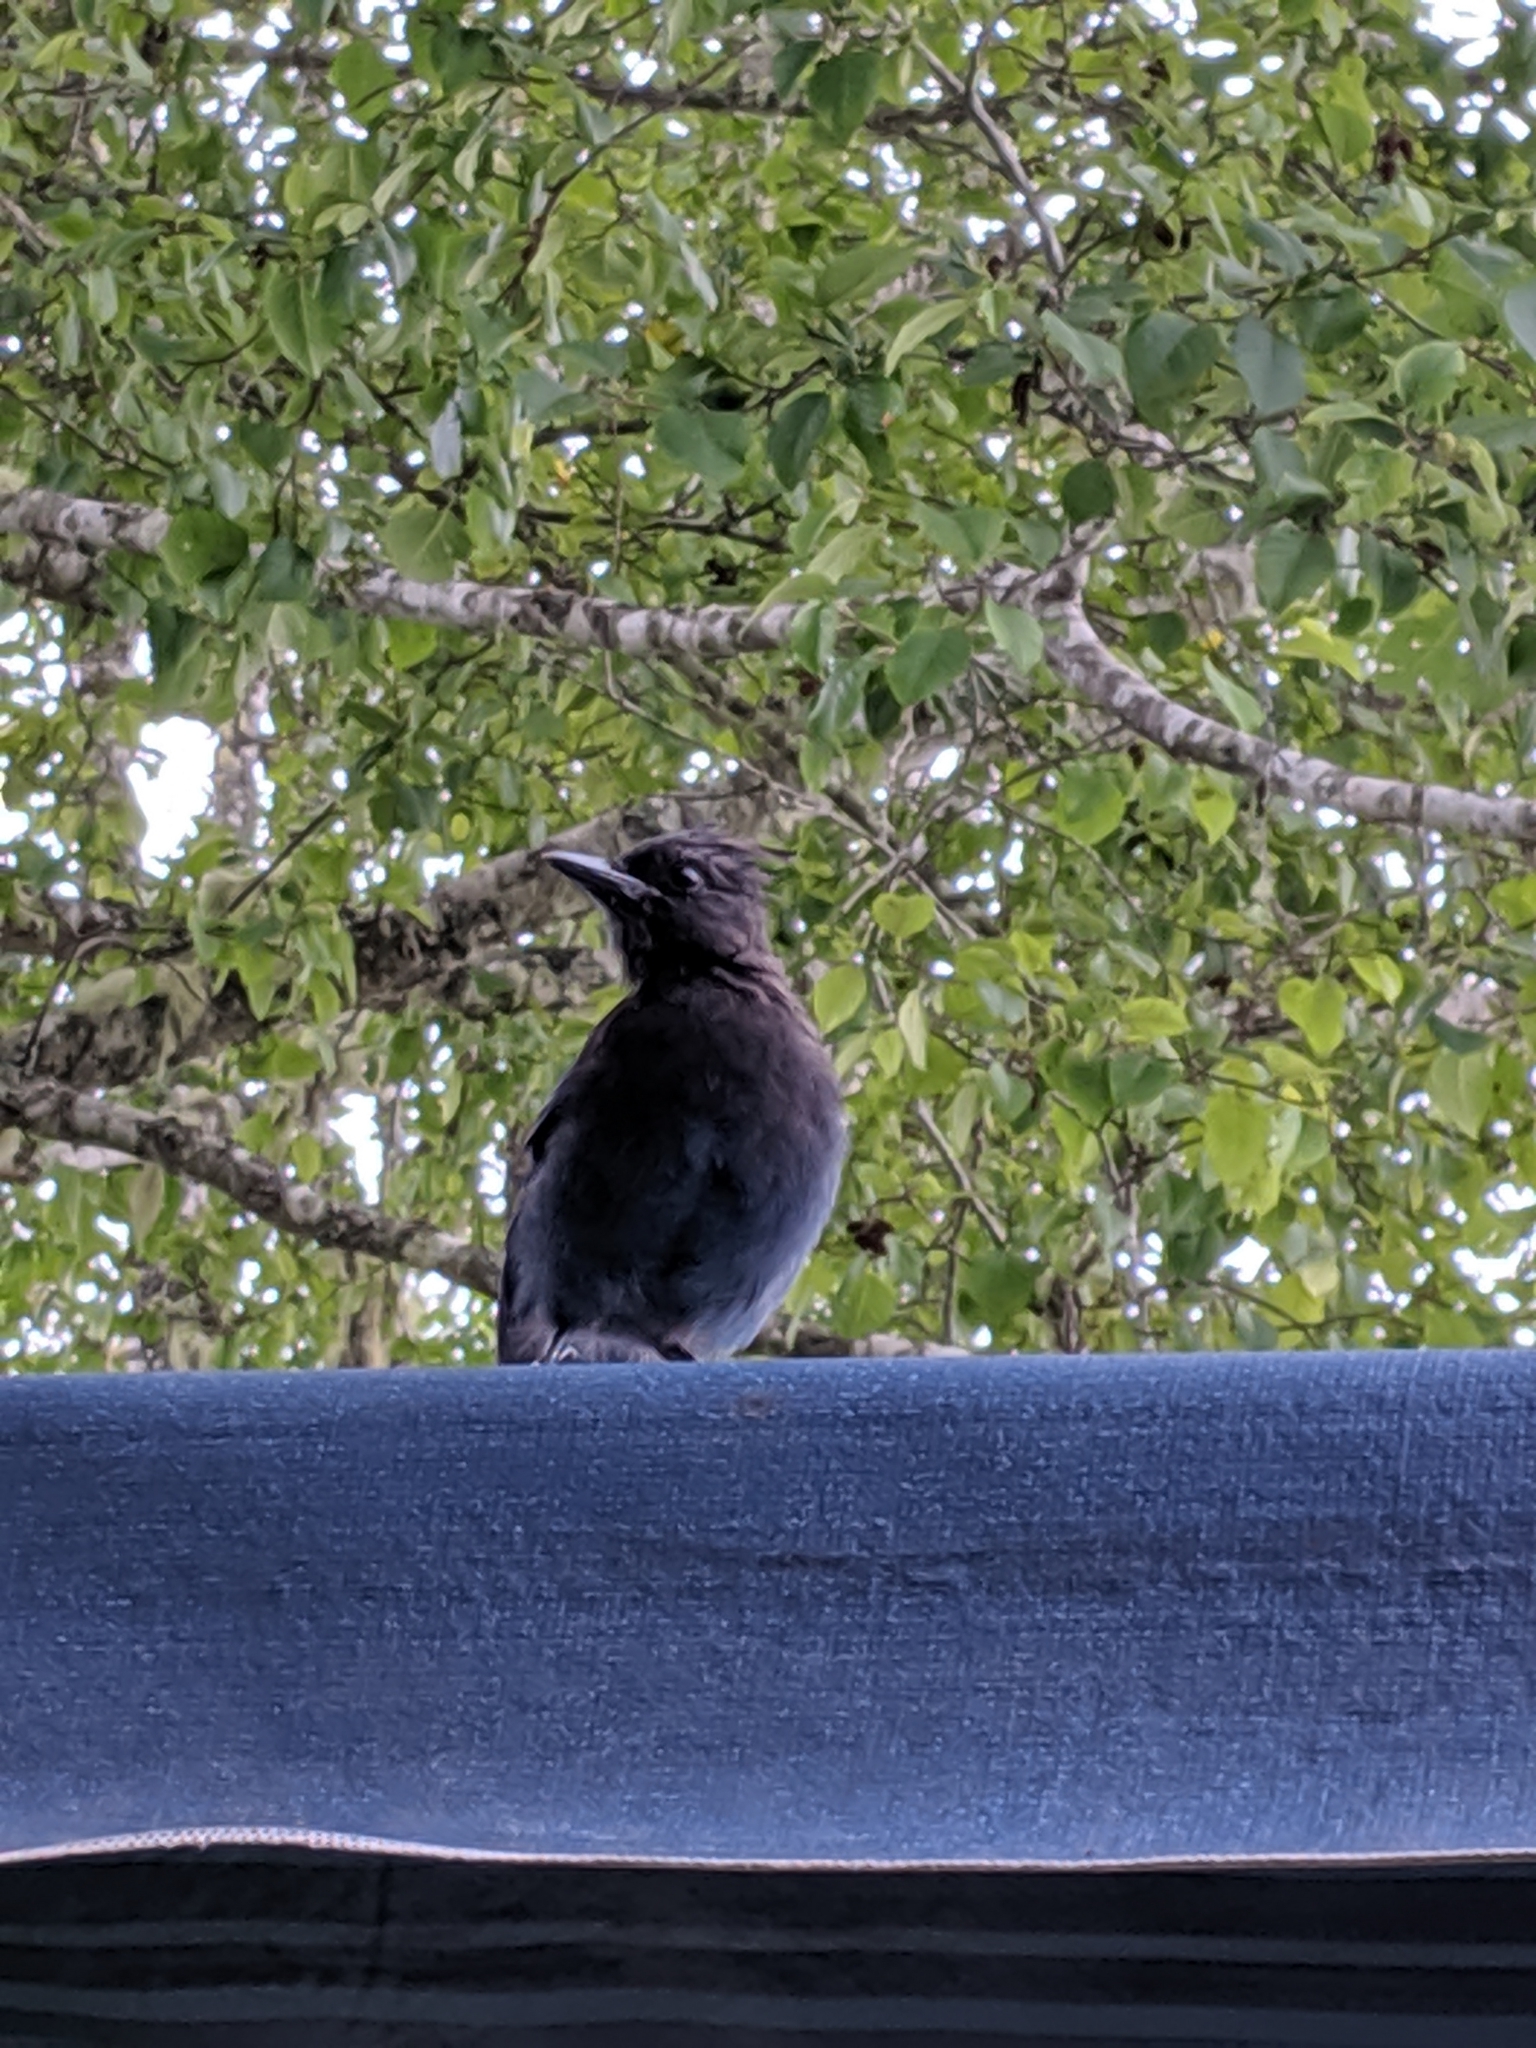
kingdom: Animalia
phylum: Chordata
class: Aves
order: Passeriformes
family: Corvidae
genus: Cyanocitta
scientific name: Cyanocitta stelleri
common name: Steller's jay
